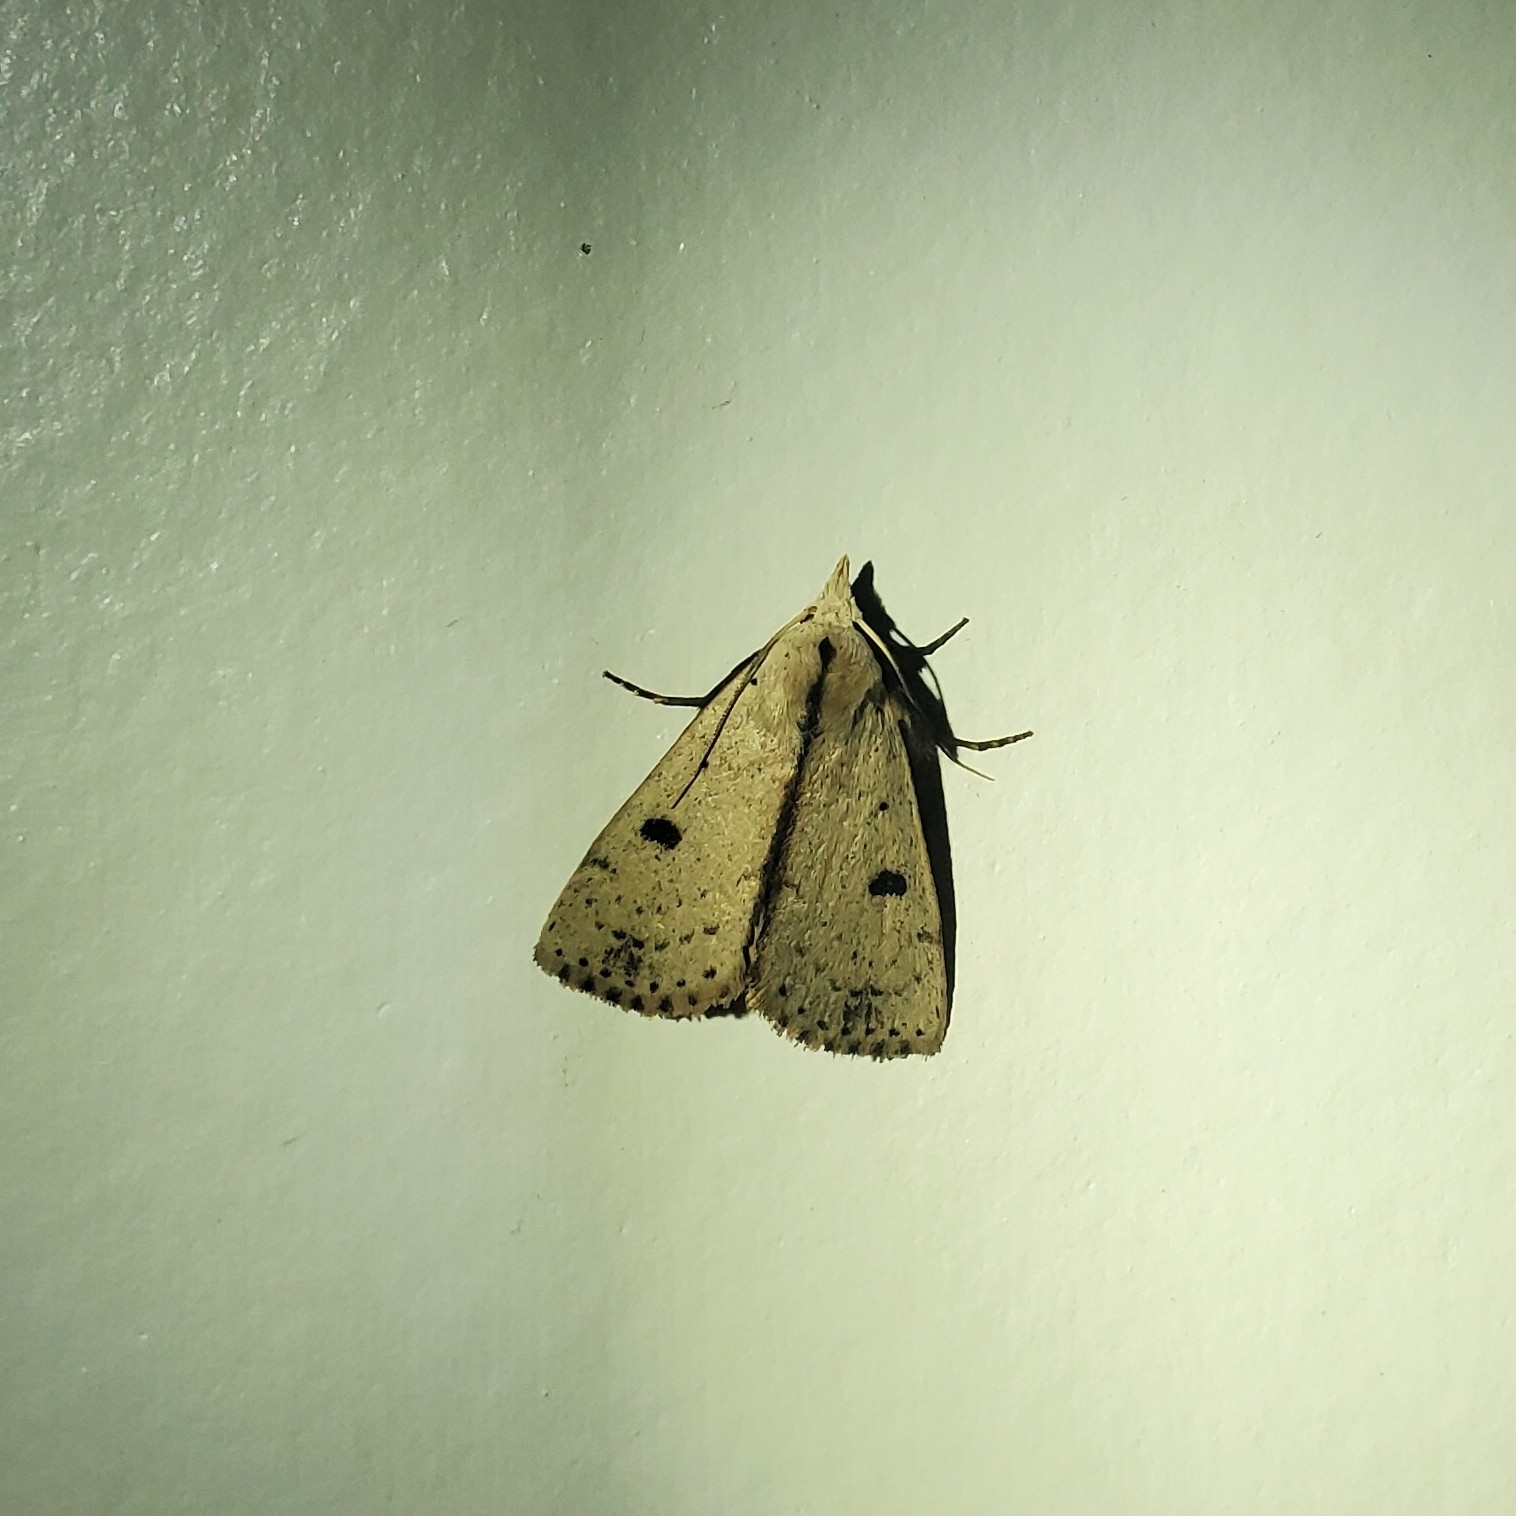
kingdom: Animalia
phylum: Arthropoda
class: Insecta
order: Lepidoptera
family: Erebidae
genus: Scolecocampa
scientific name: Scolecocampa liburna
